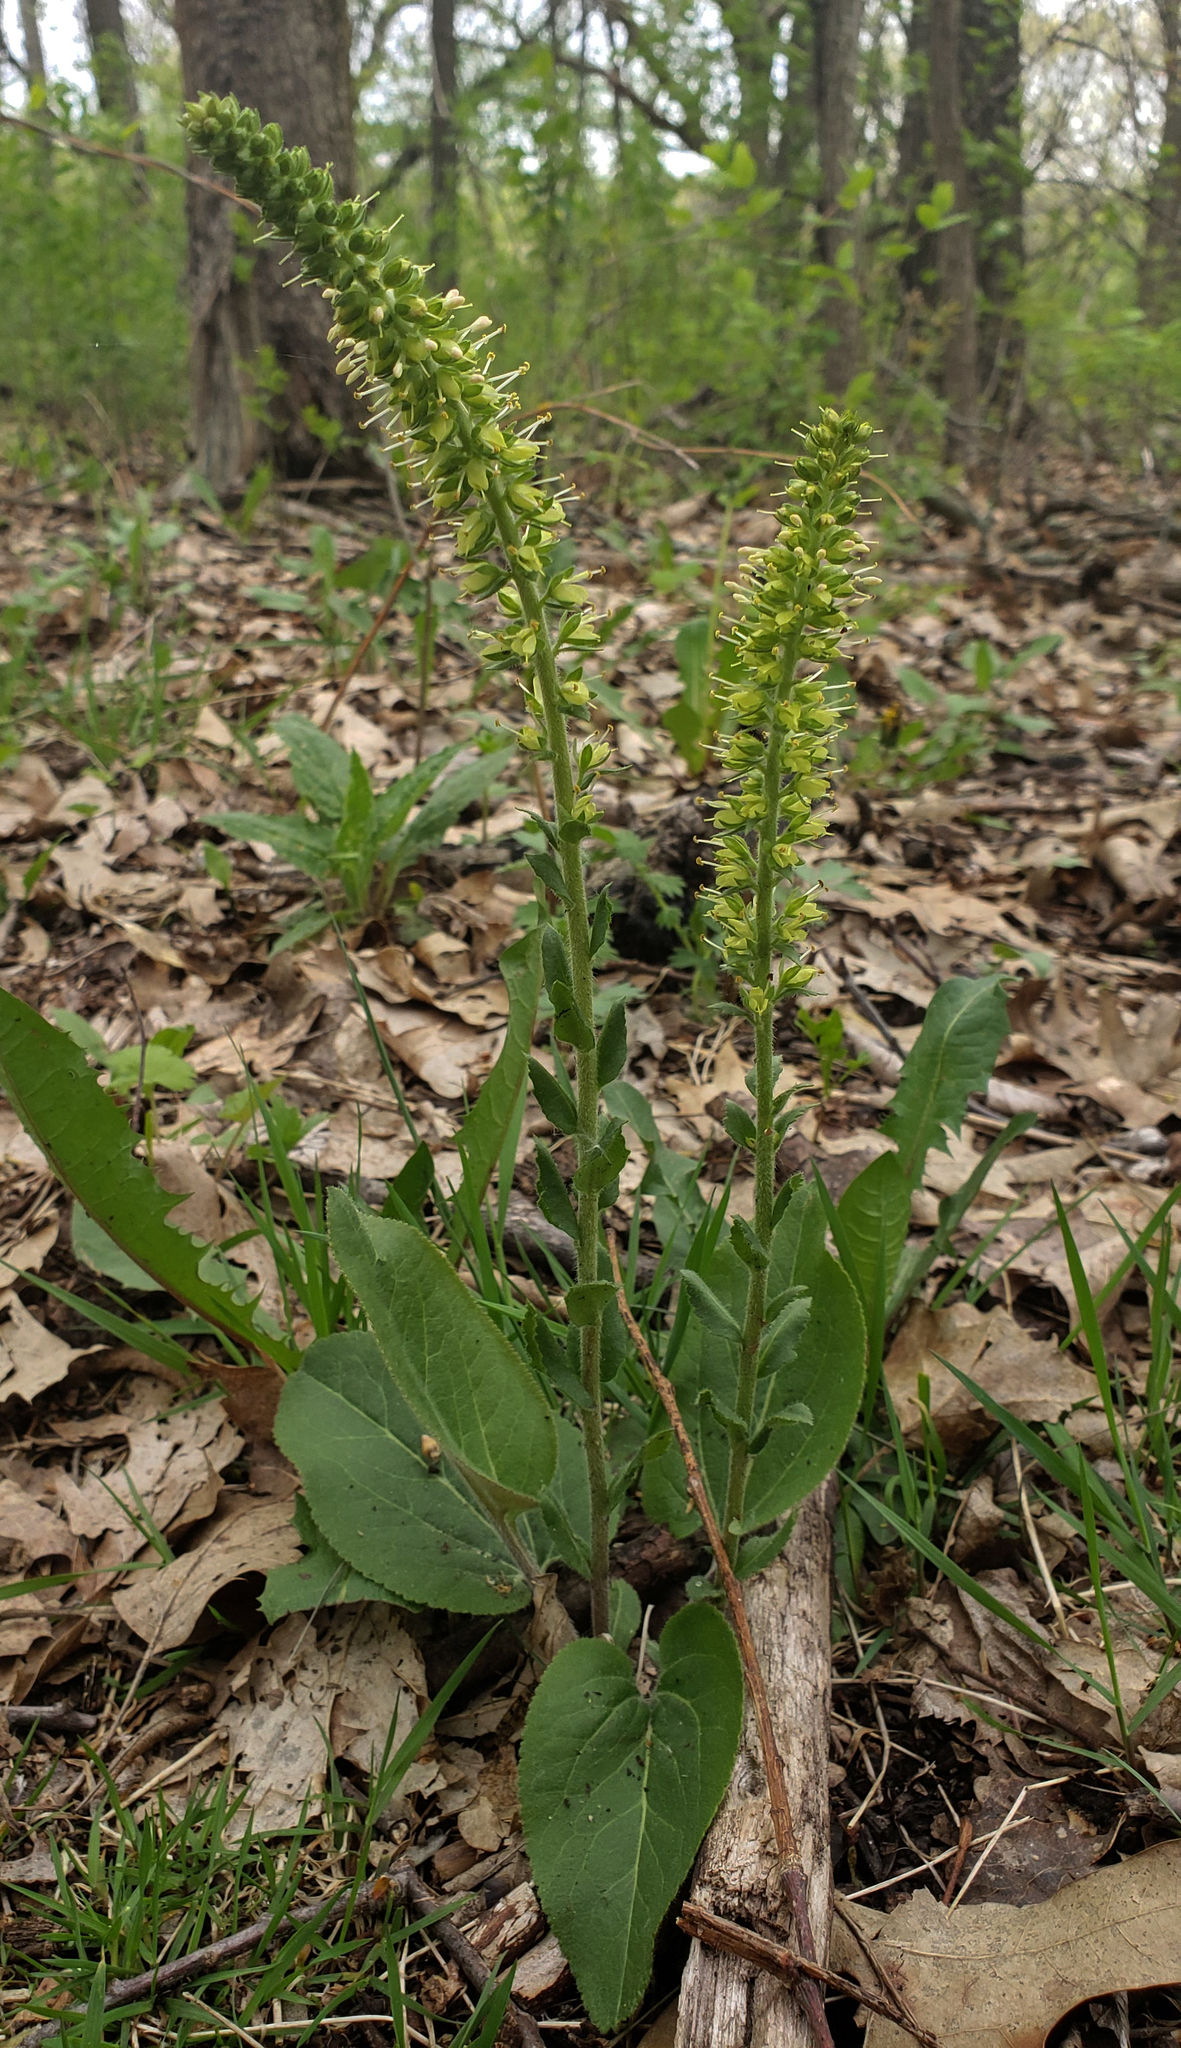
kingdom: Plantae
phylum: Tracheophyta
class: Magnoliopsida
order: Lamiales
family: Plantaginaceae
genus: Synthyris
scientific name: Synthyris bullii
